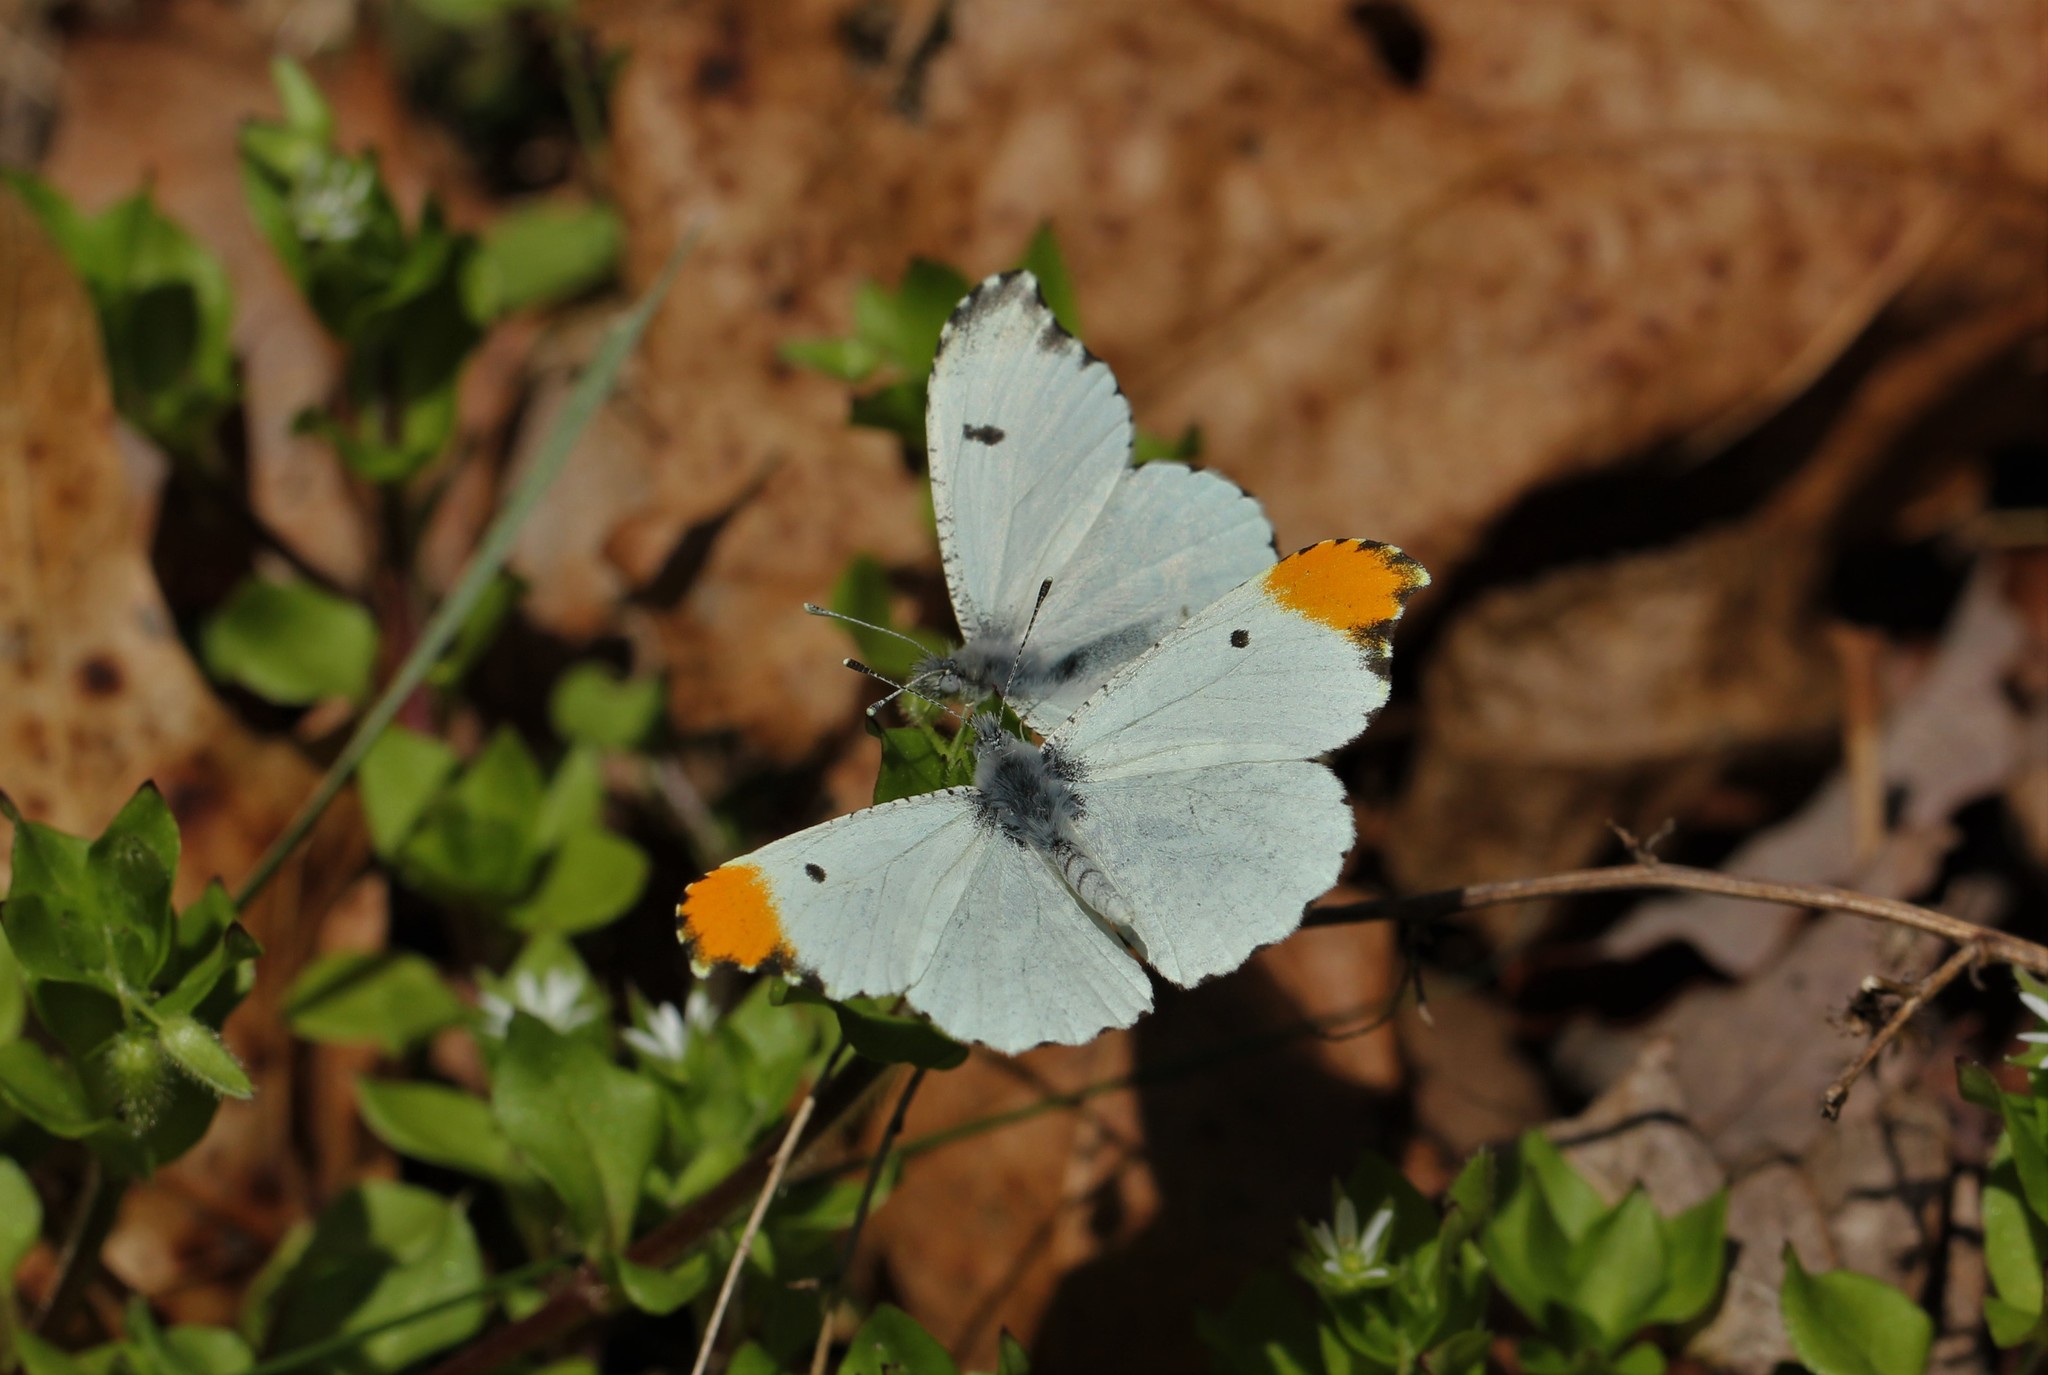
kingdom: Animalia
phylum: Arthropoda
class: Insecta
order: Lepidoptera
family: Pieridae
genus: Anthocharis
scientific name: Anthocharis midea
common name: Falcate orangetip
